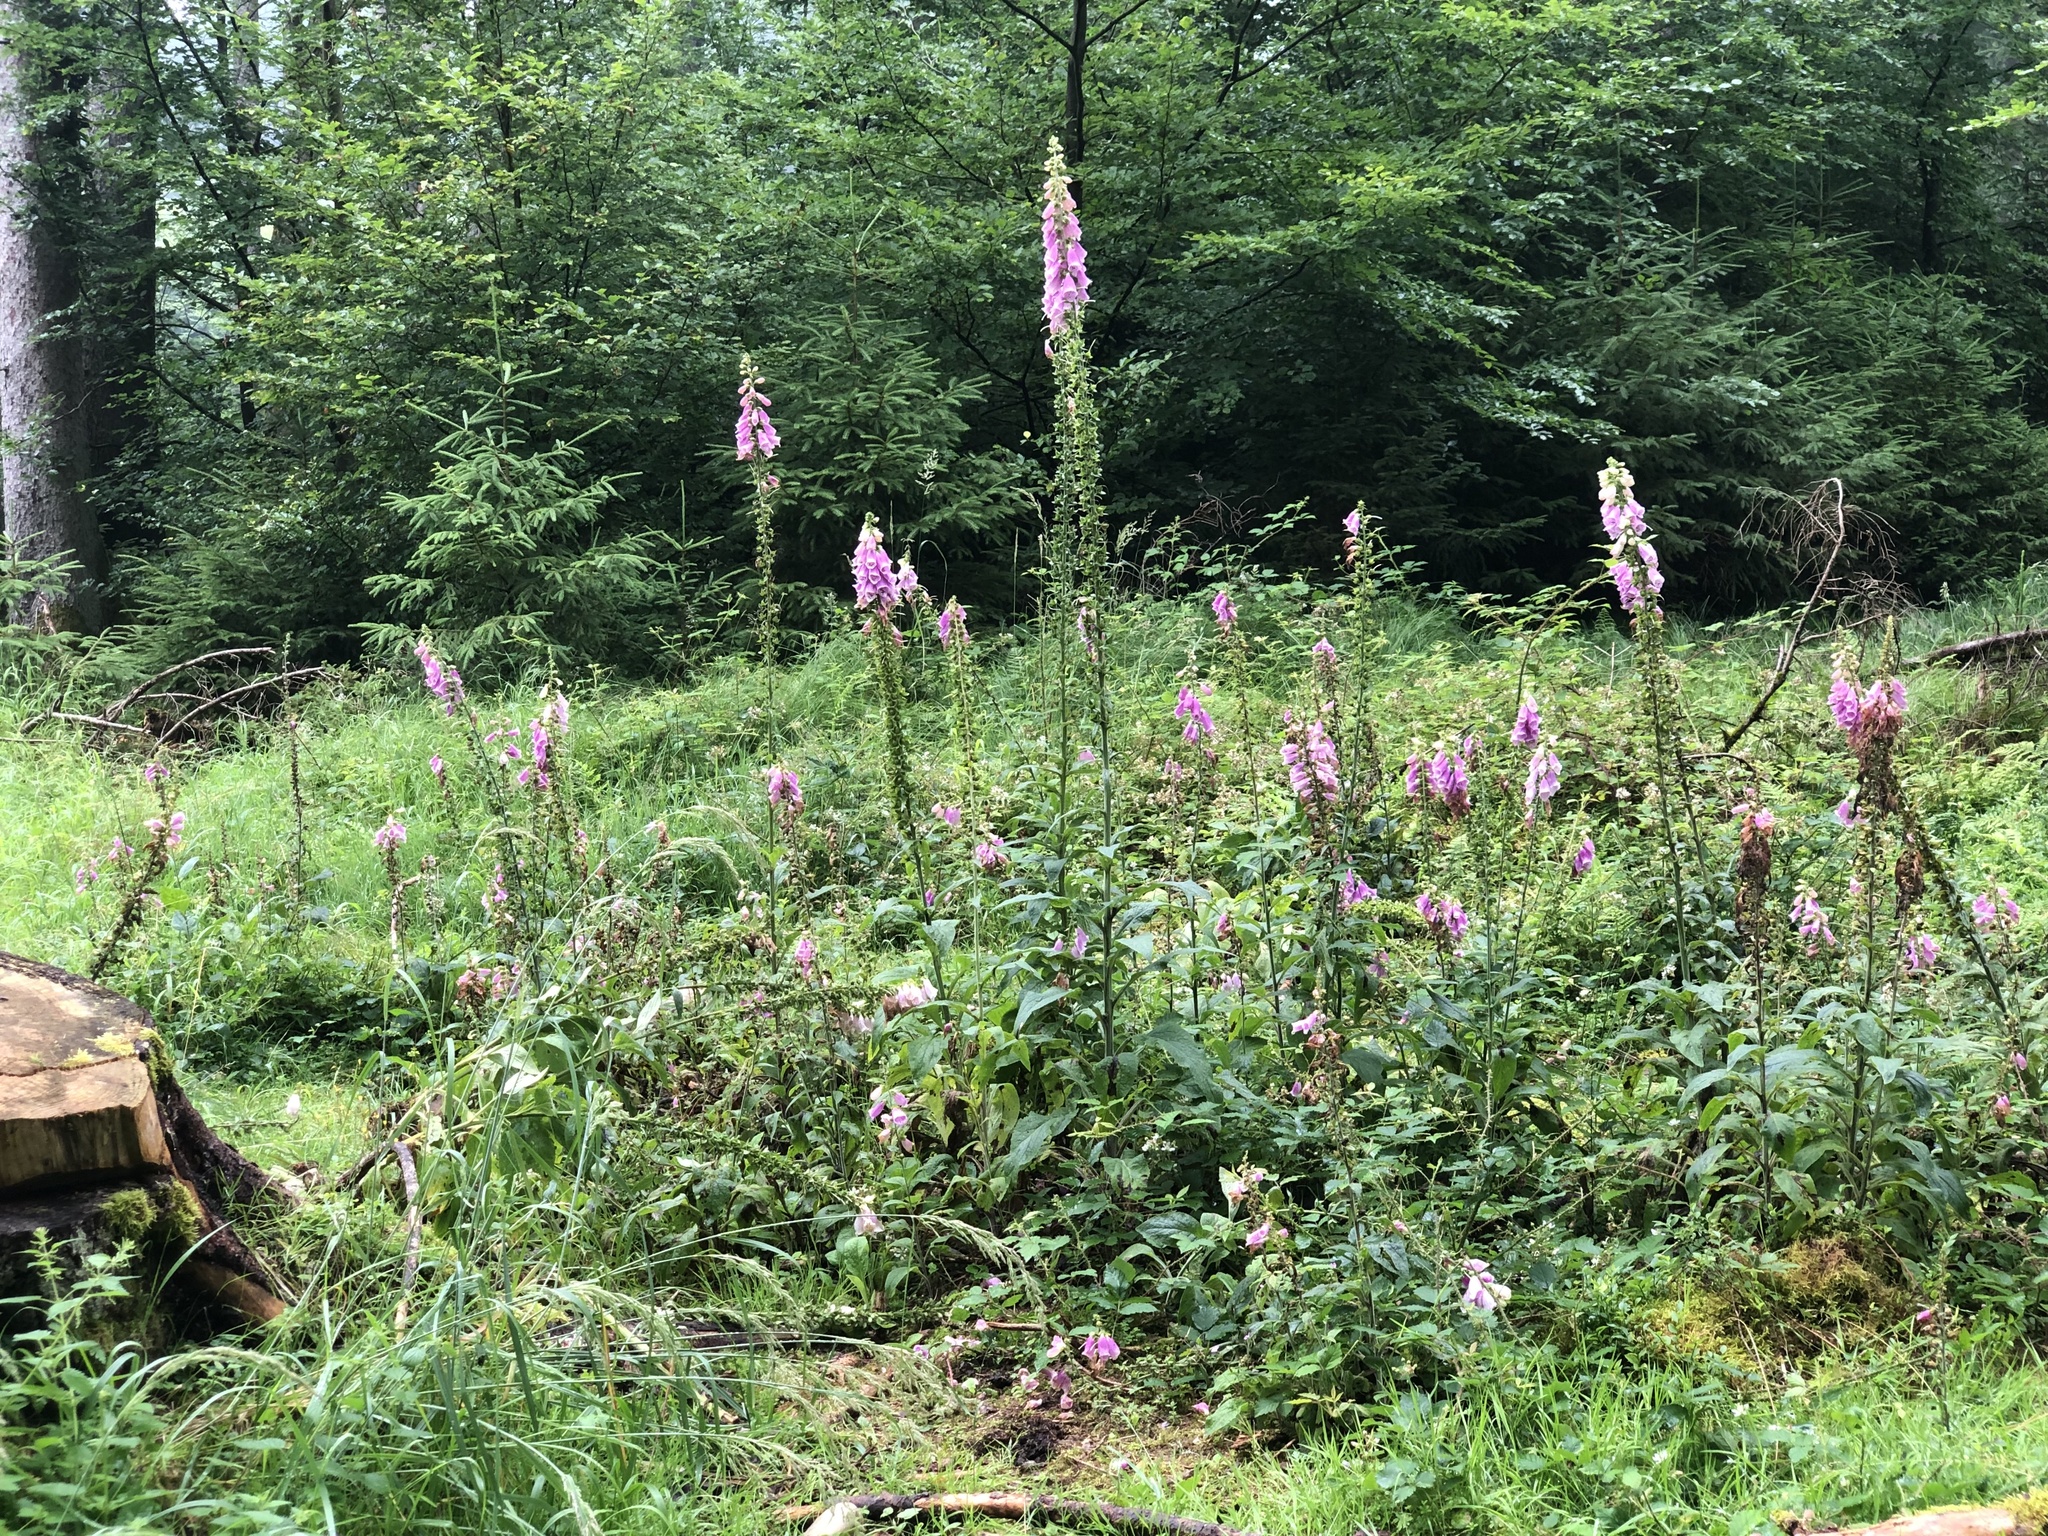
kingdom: Plantae
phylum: Tracheophyta
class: Magnoliopsida
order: Lamiales
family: Plantaginaceae
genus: Digitalis
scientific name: Digitalis purpurea
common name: Foxglove
